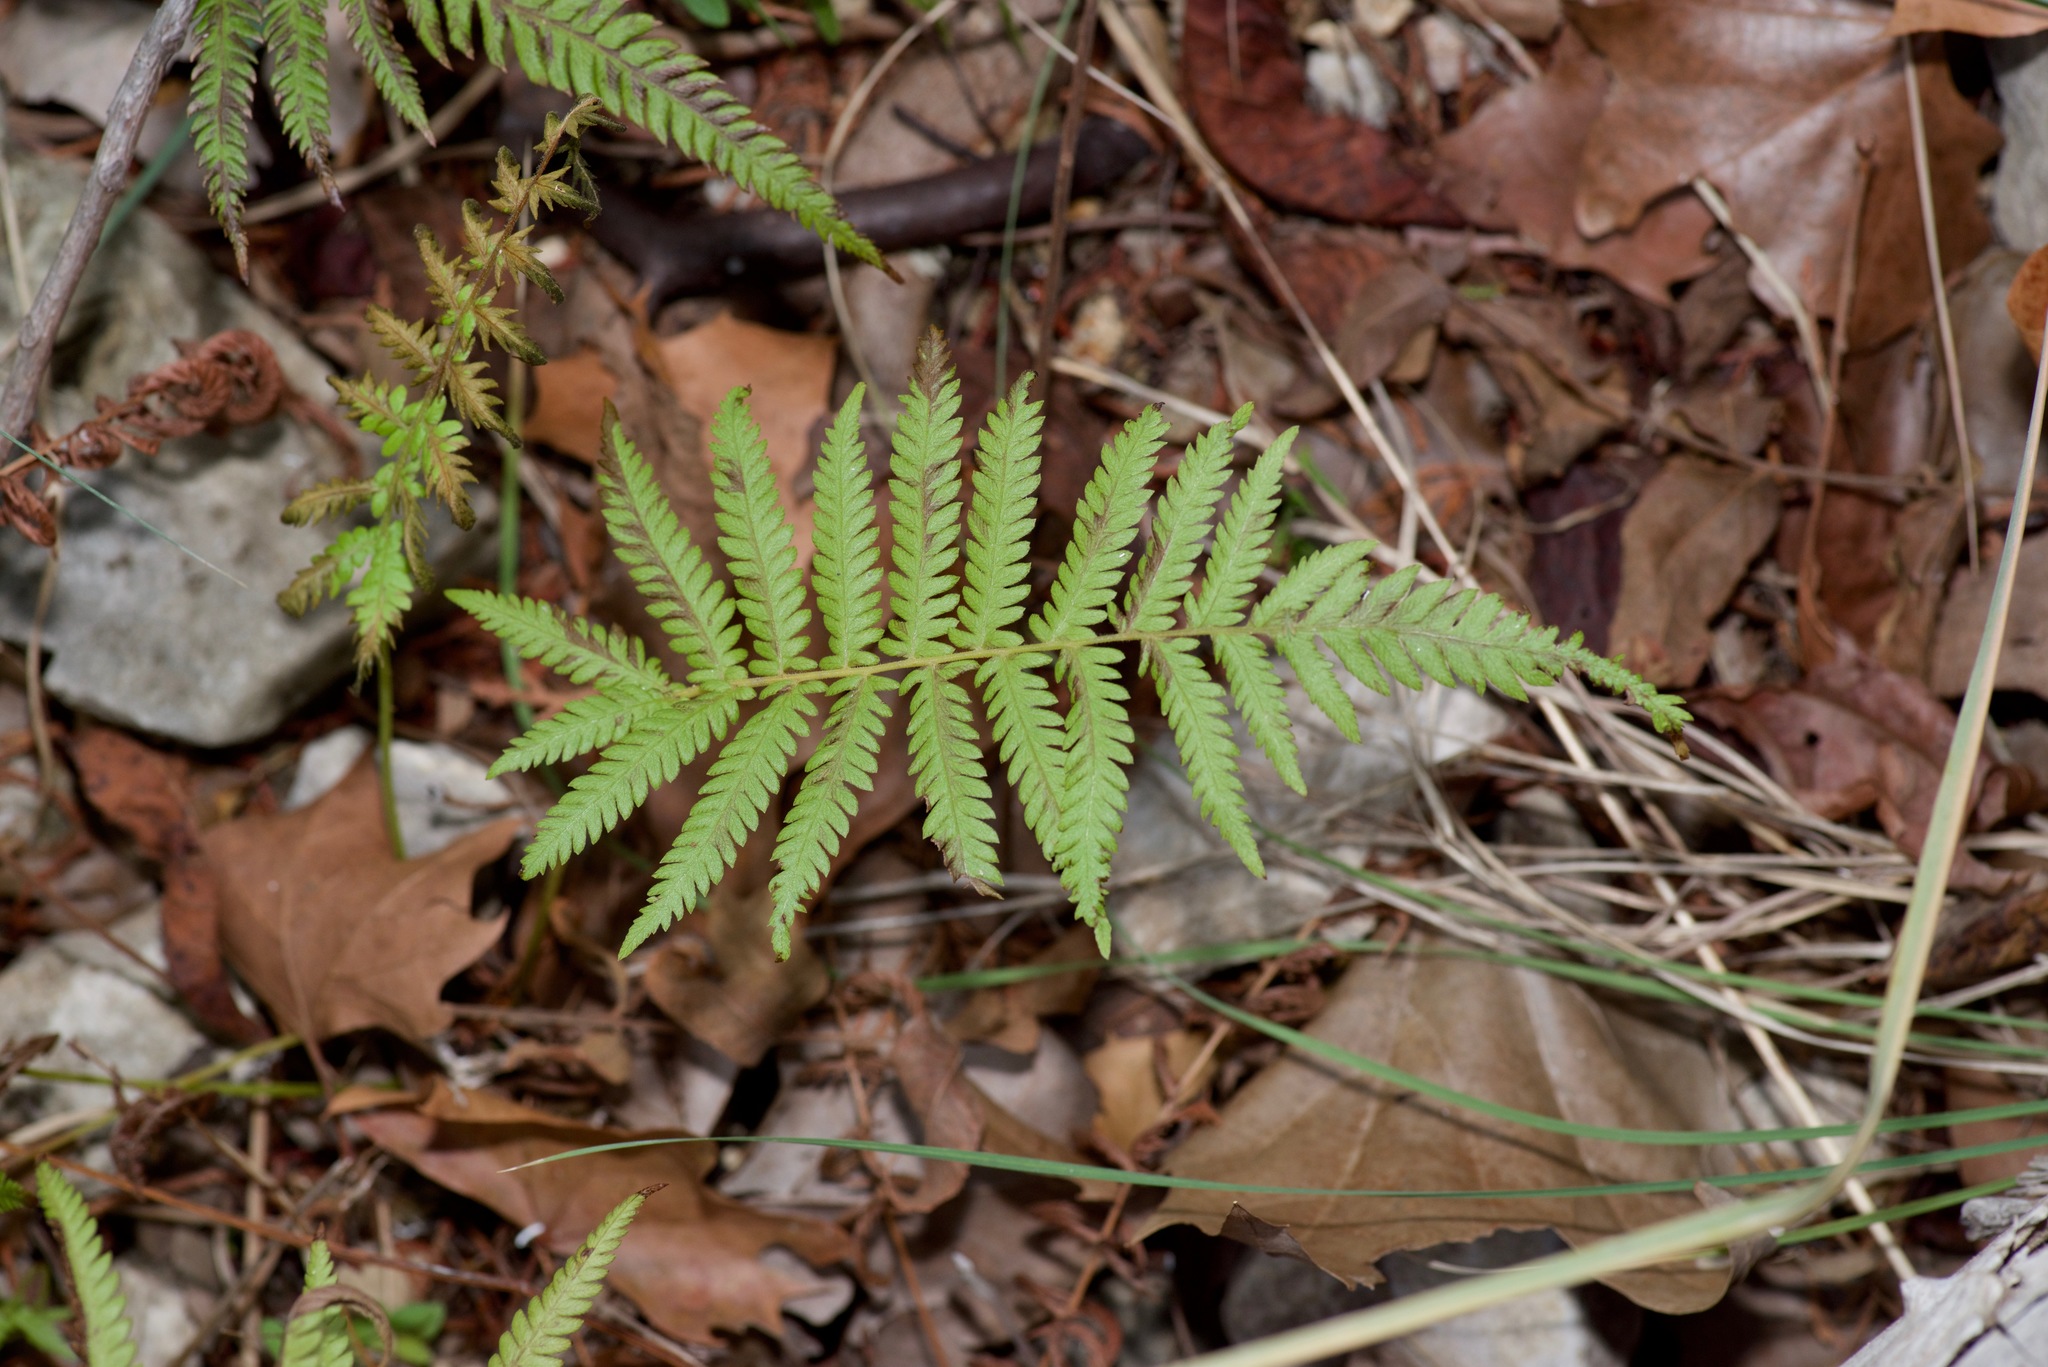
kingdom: Plantae
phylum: Tracheophyta
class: Polypodiopsida
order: Polypodiales
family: Thelypteridaceae
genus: Pelazoneuron
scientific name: Pelazoneuron ovatum
